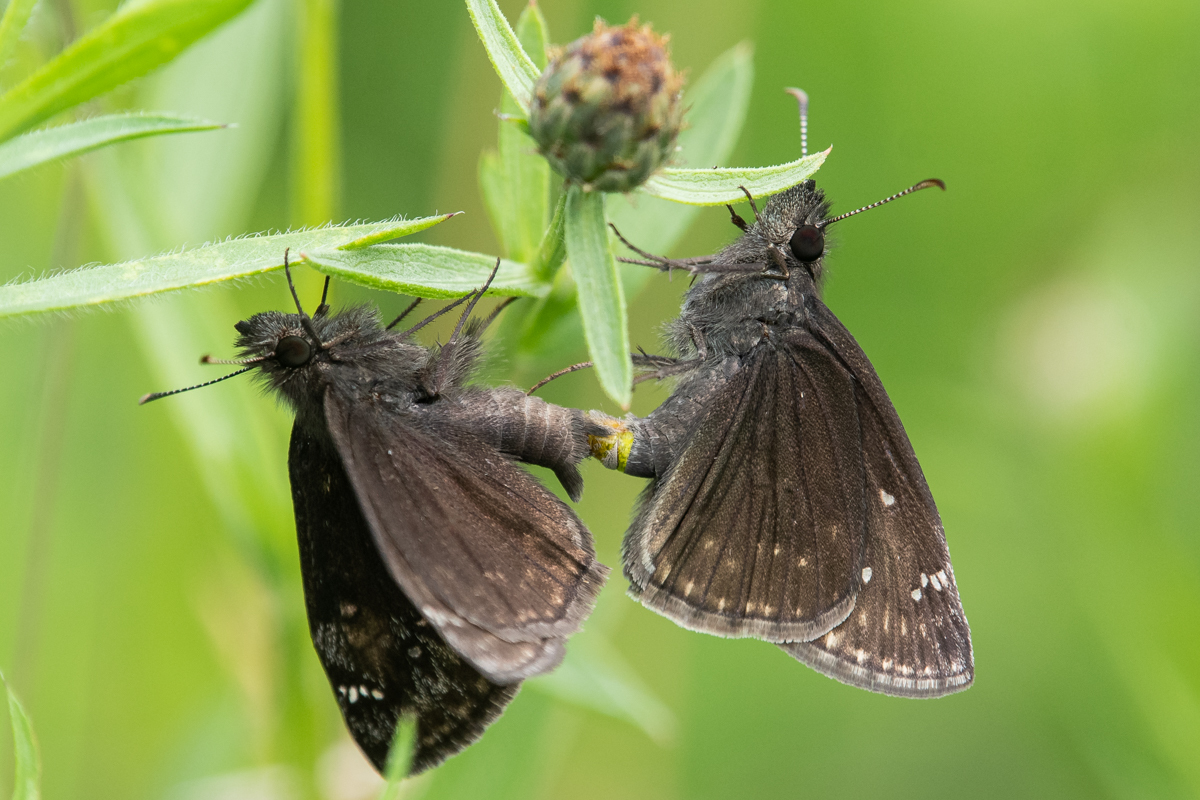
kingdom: Animalia
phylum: Arthropoda
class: Insecta
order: Lepidoptera
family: Hesperiidae
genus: Erynnis
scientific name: Erynnis baptisiae
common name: Wild indigo duskywing
